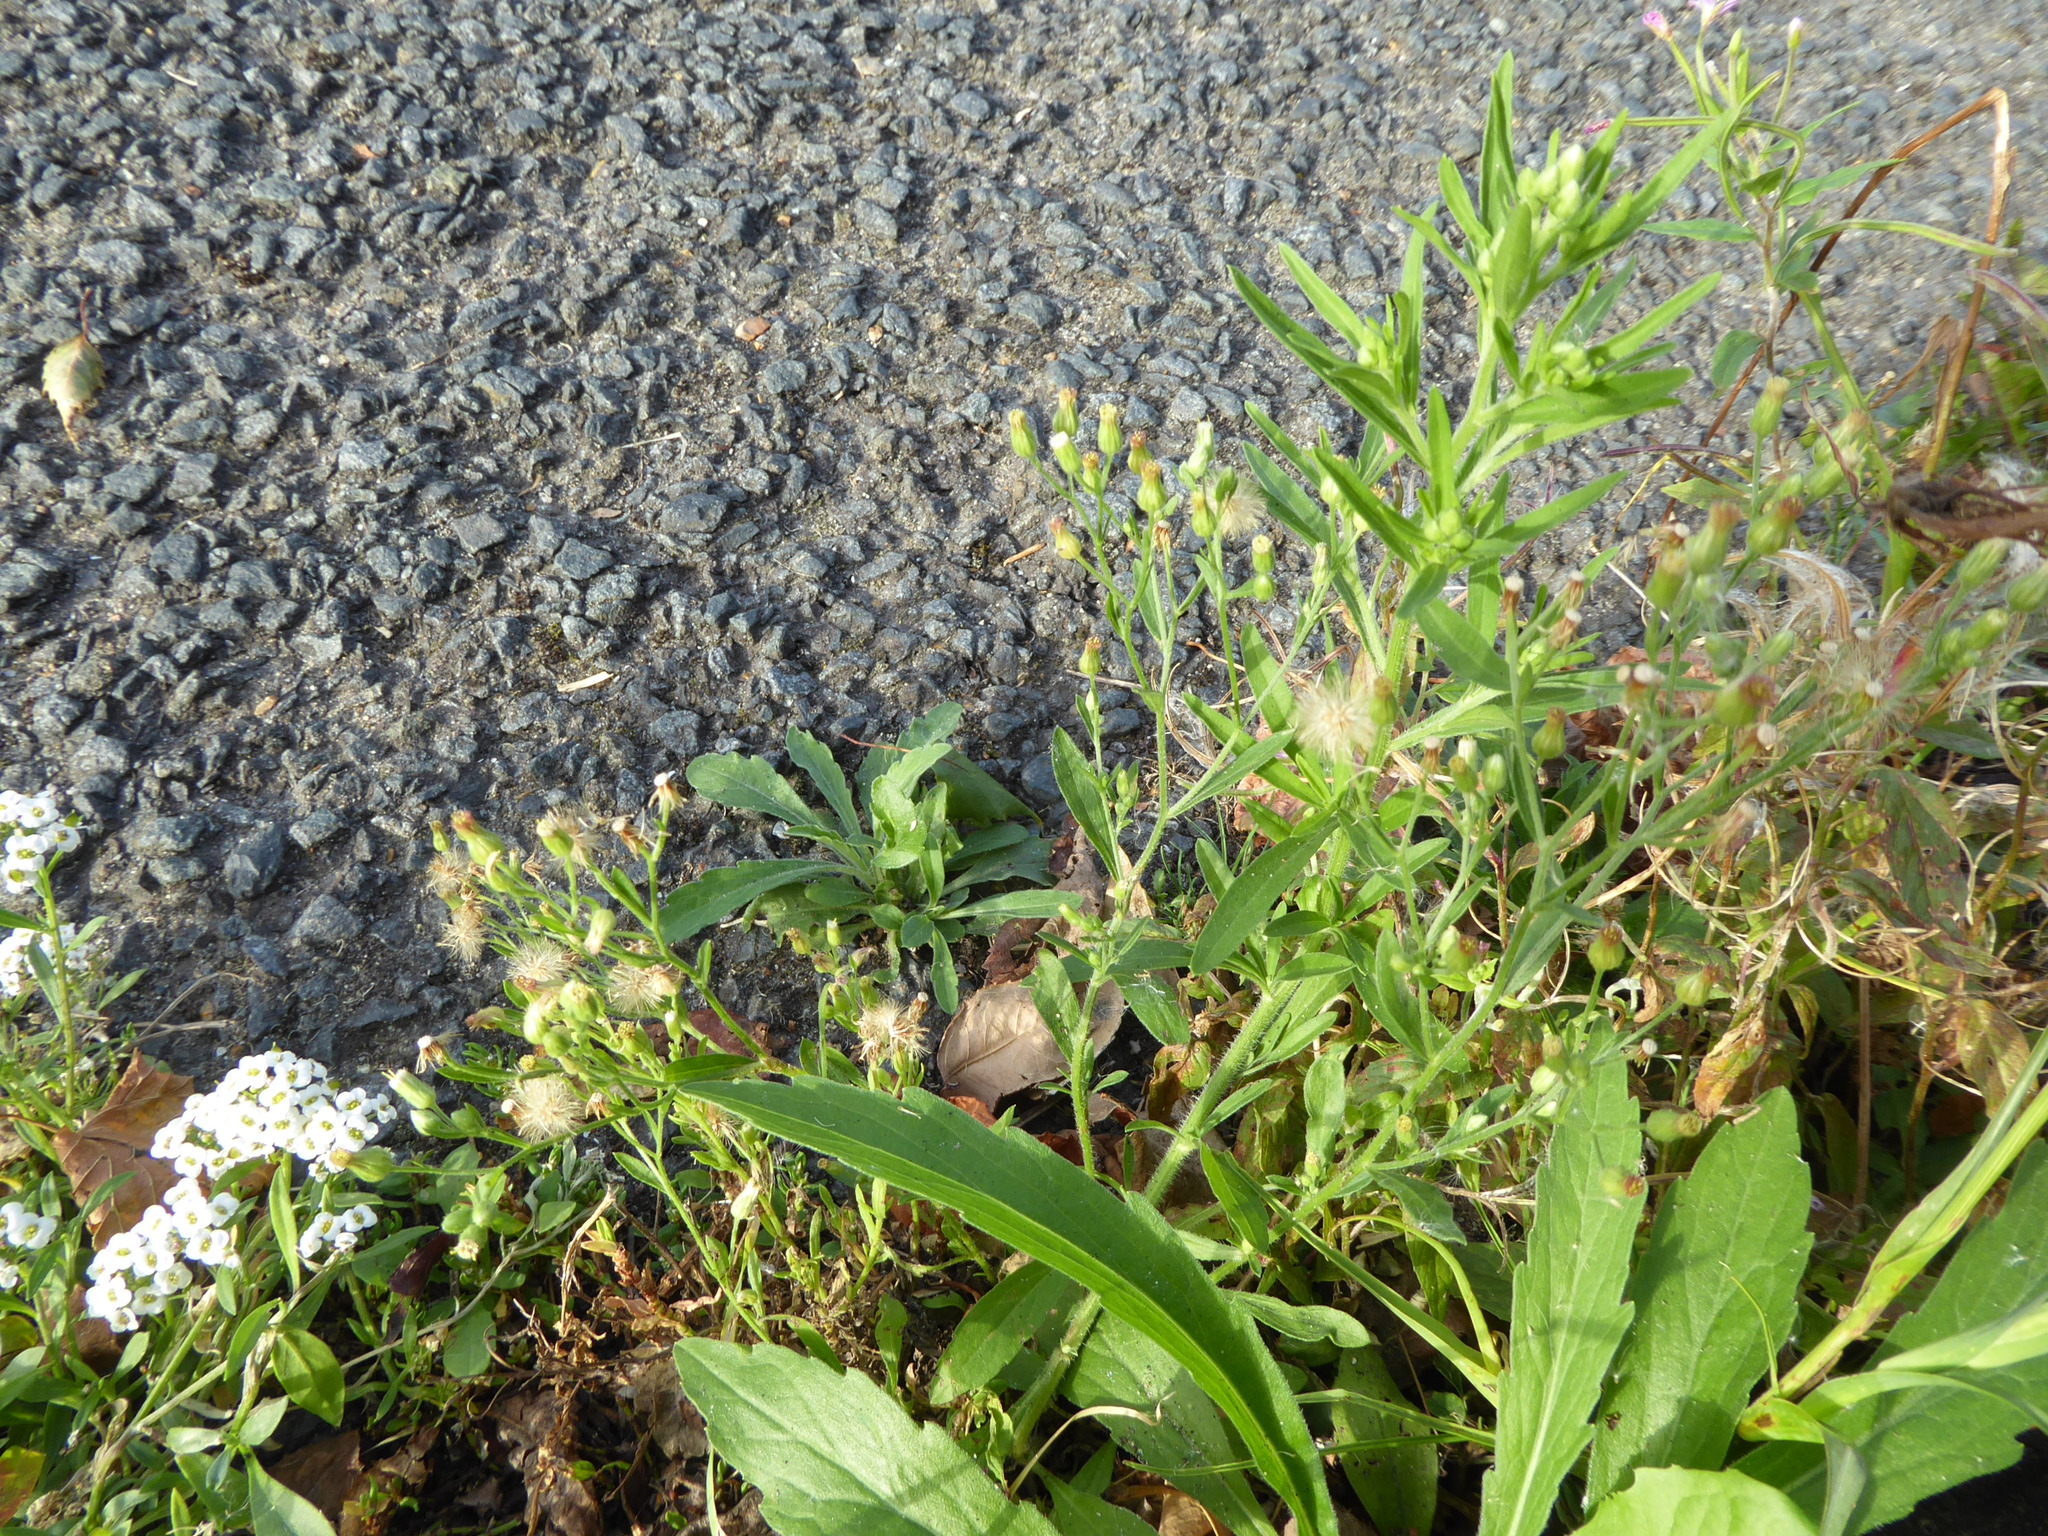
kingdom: Plantae
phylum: Tracheophyta
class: Magnoliopsida
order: Asterales
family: Asteraceae
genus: Erigeron
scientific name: Erigeron sumatrensis
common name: Daisy
